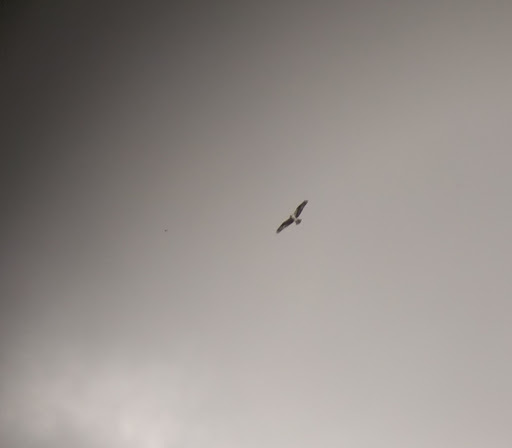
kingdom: Animalia
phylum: Chordata
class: Aves
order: Accipitriformes
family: Pandionidae
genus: Pandion
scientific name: Pandion haliaetus
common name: Osprey
